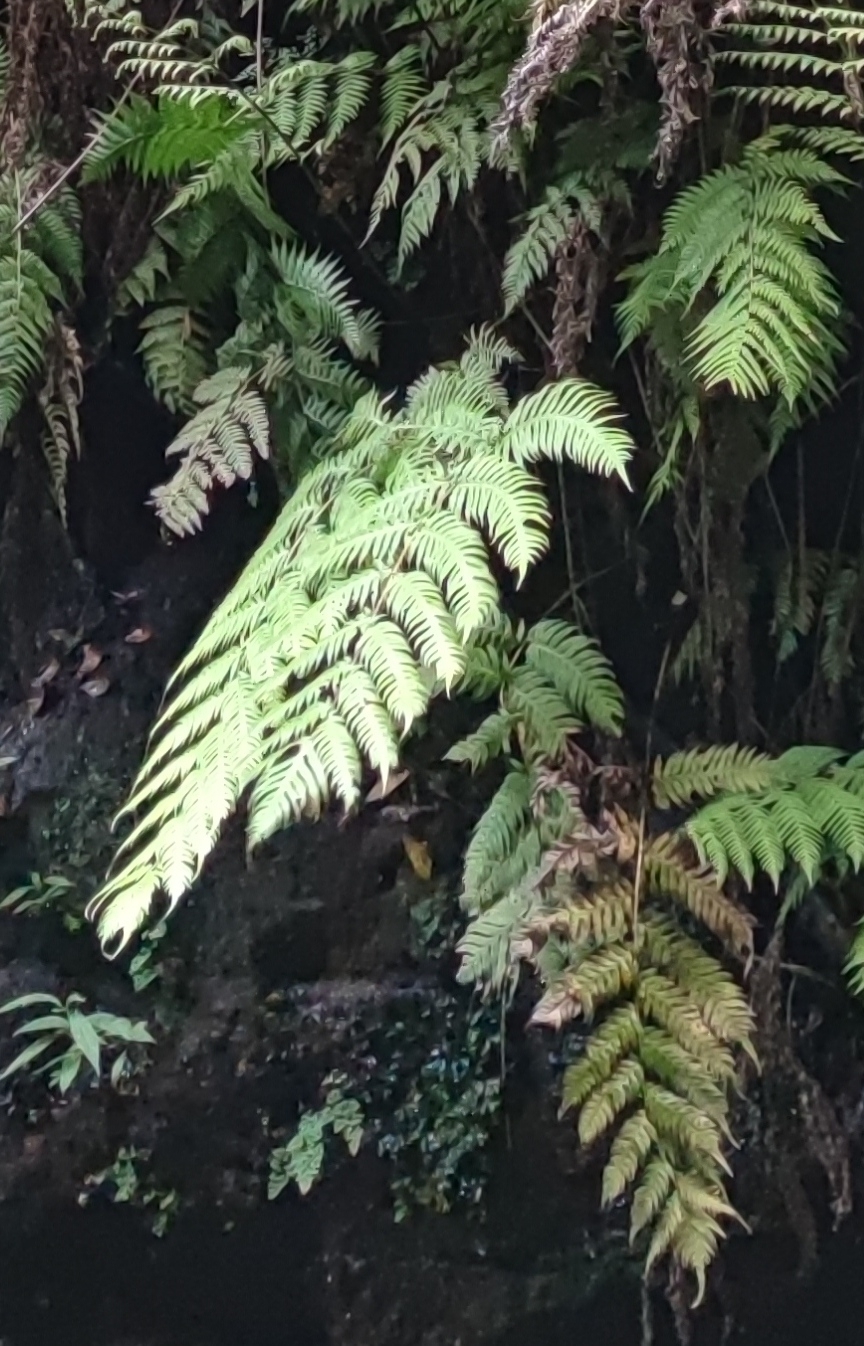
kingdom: Plantae
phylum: Tracheophyta
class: Polypodiopsida
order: Polypodiales
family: Blechnaceae
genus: Woodwardia
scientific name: Woodwardia radicans
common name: Rooting chainfern
